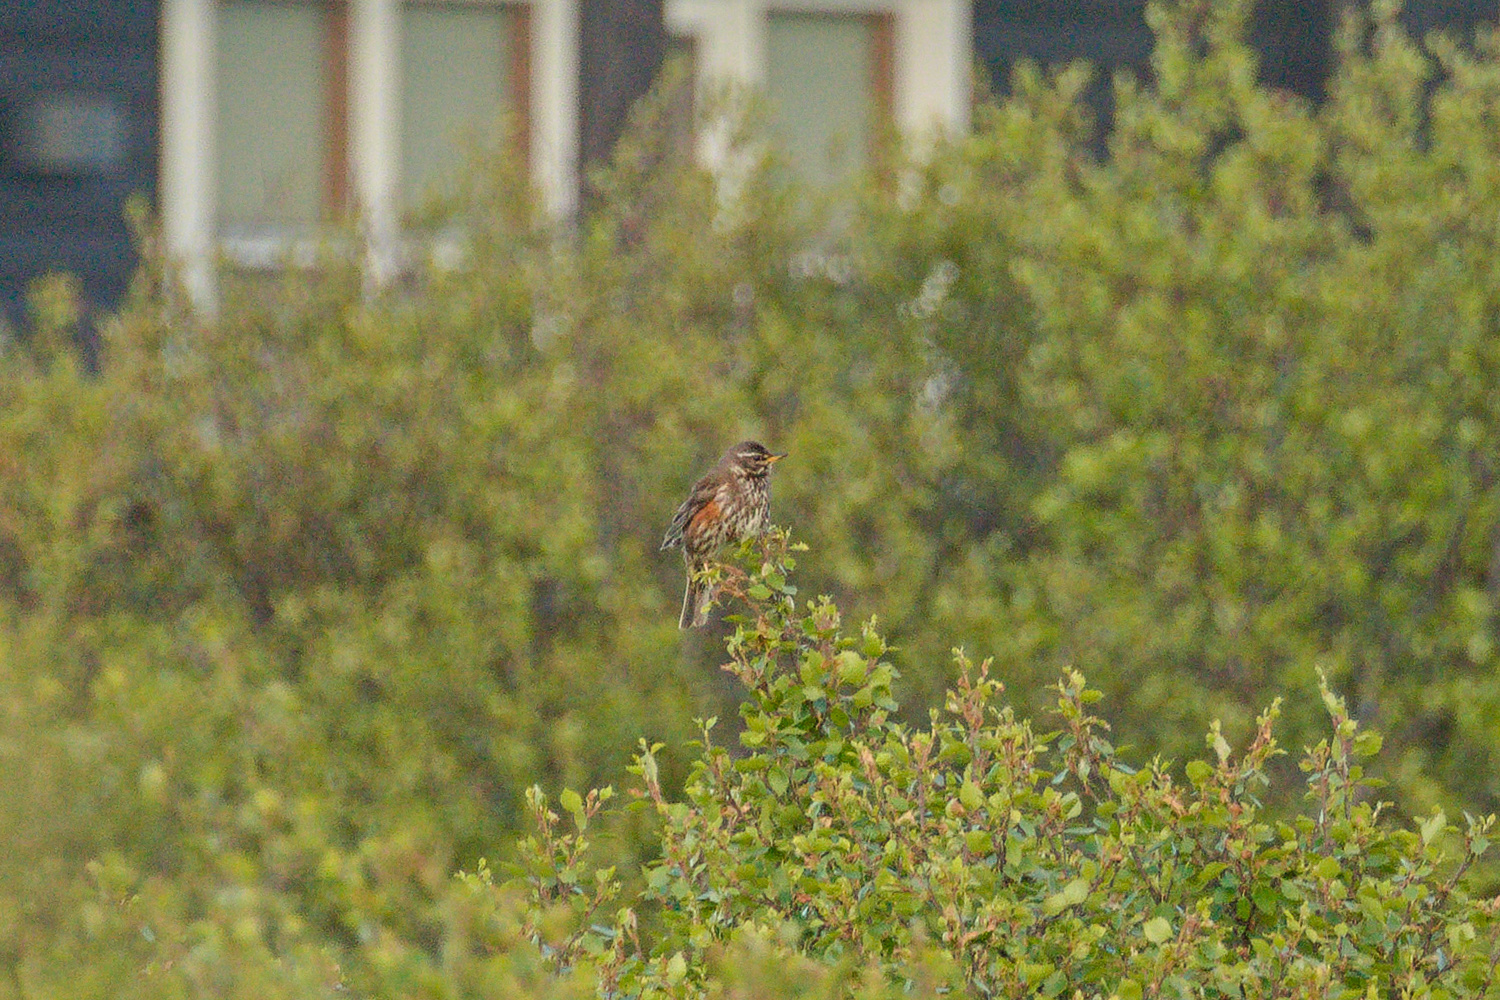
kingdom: Animalia
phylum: Chordata
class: Aves
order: Passeriformes
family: Turdidae
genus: Turdus
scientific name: Turdus iliacus
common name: Redwing
